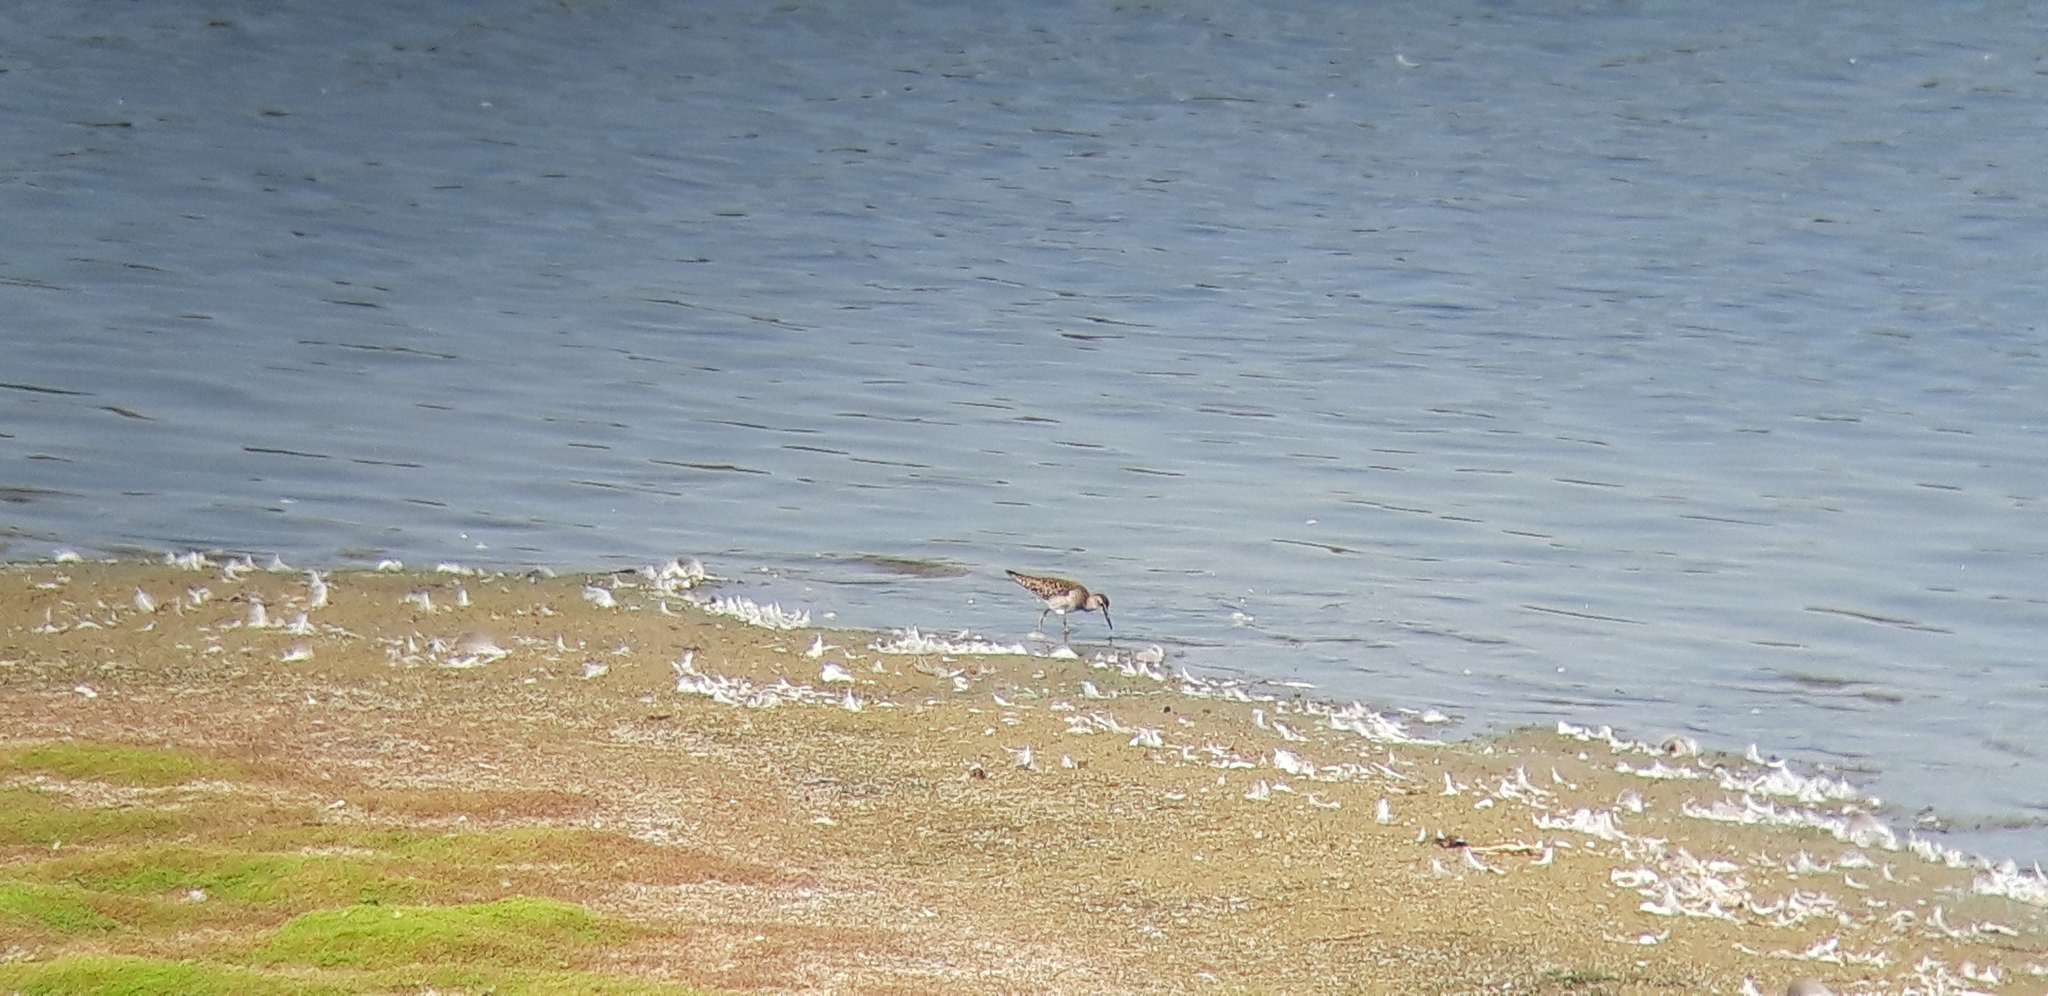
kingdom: Animalia
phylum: Chordata
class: Aves
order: Charadriiformes
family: Scolopacidae
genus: Tringa
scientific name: Tringa glareola
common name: Wood sandpiper
